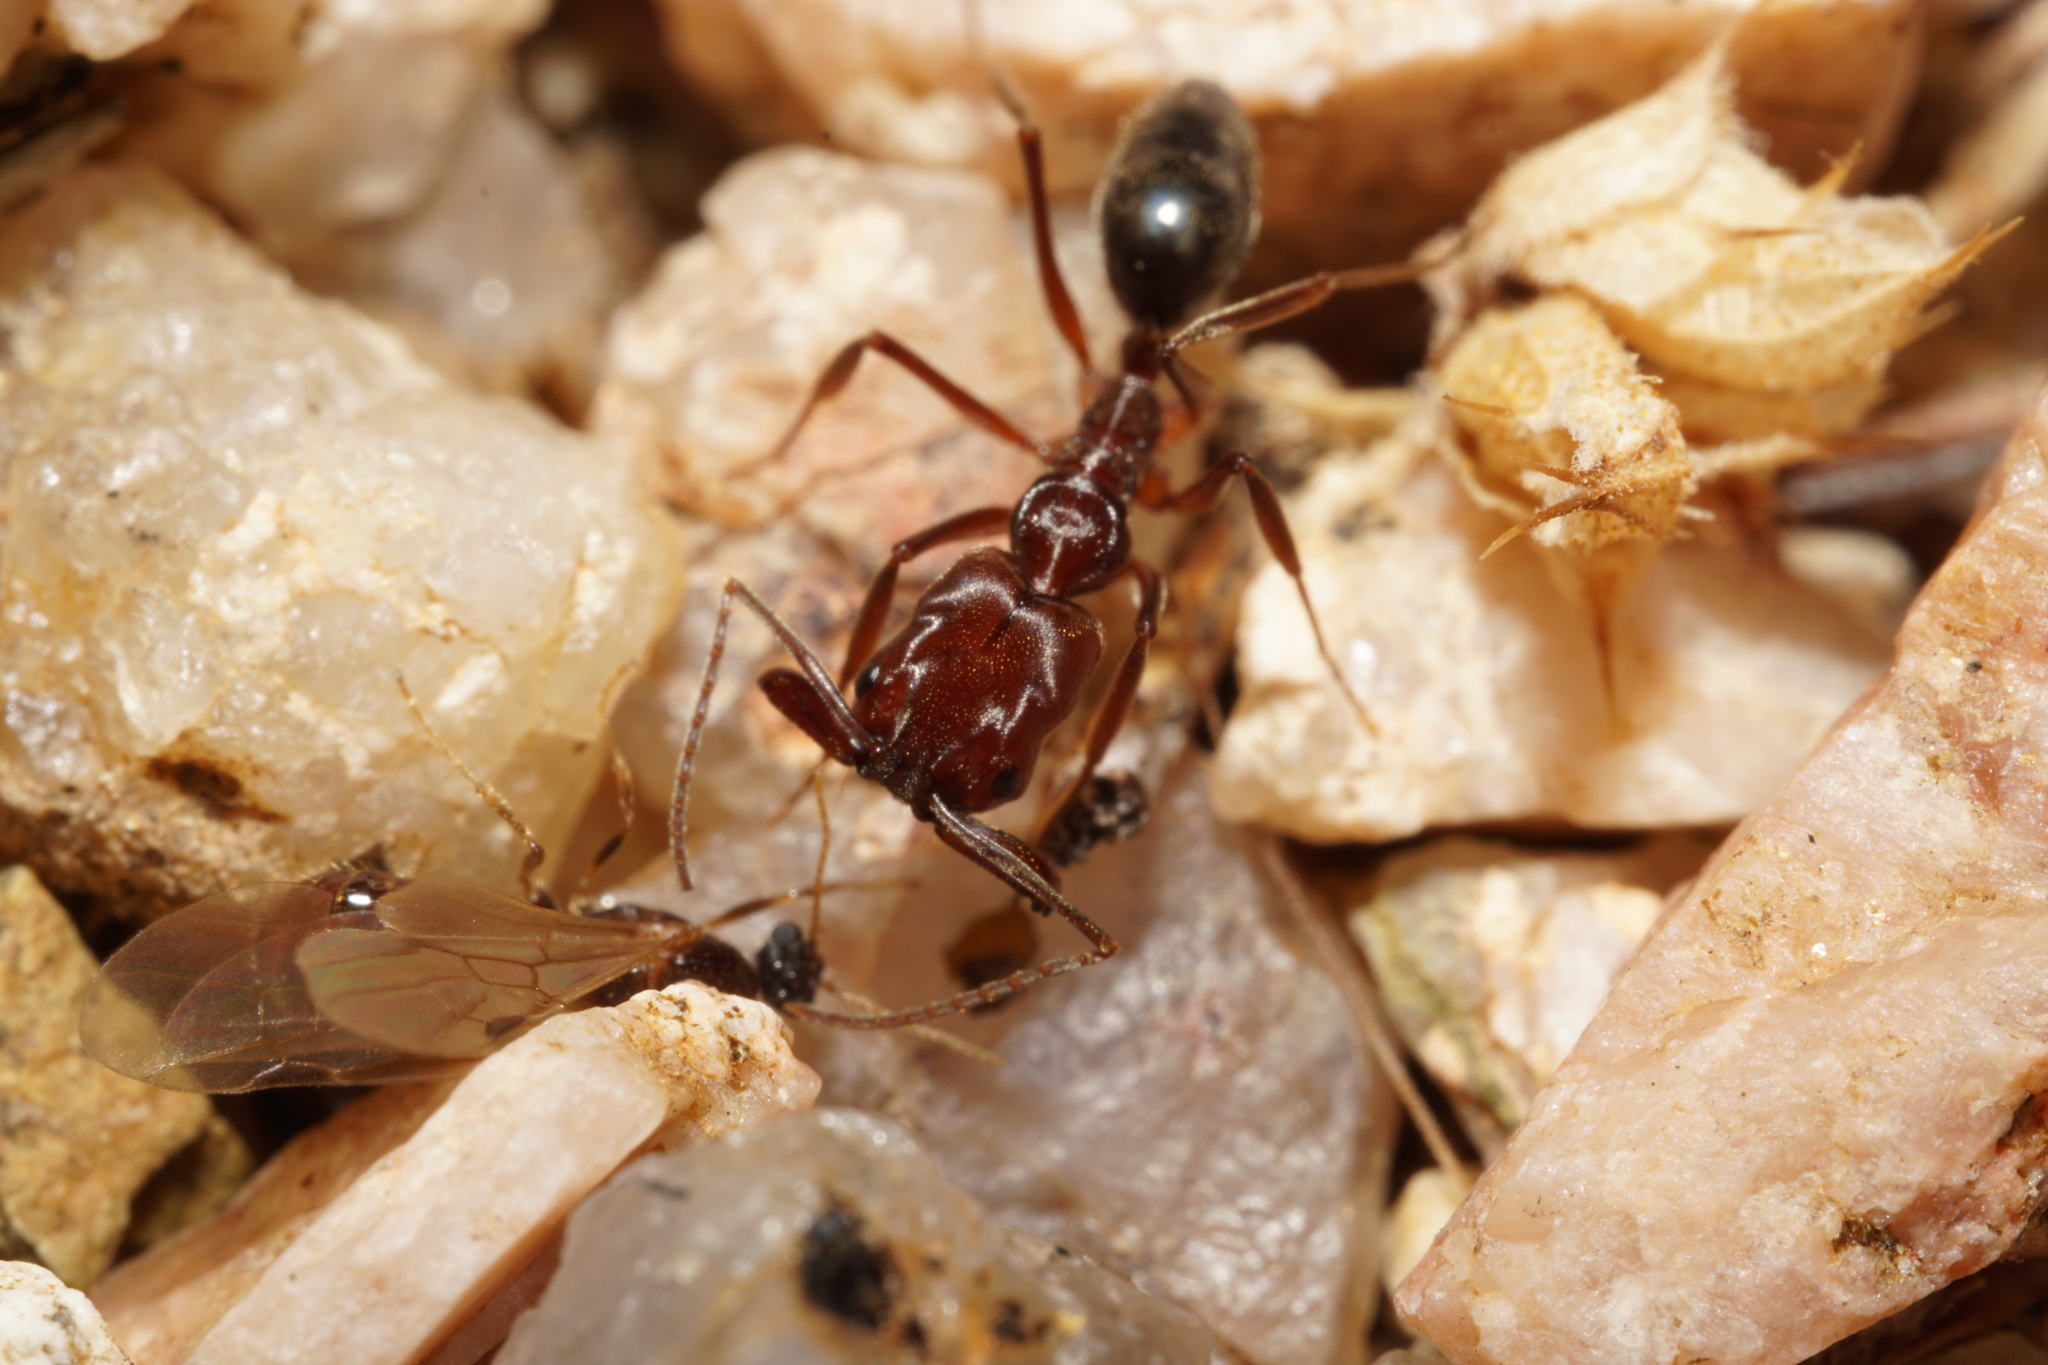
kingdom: Animalia
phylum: Arthropoda
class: Insecta
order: Hymenoptera
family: Formicidae
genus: Odontomachus
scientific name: Odontomachus
